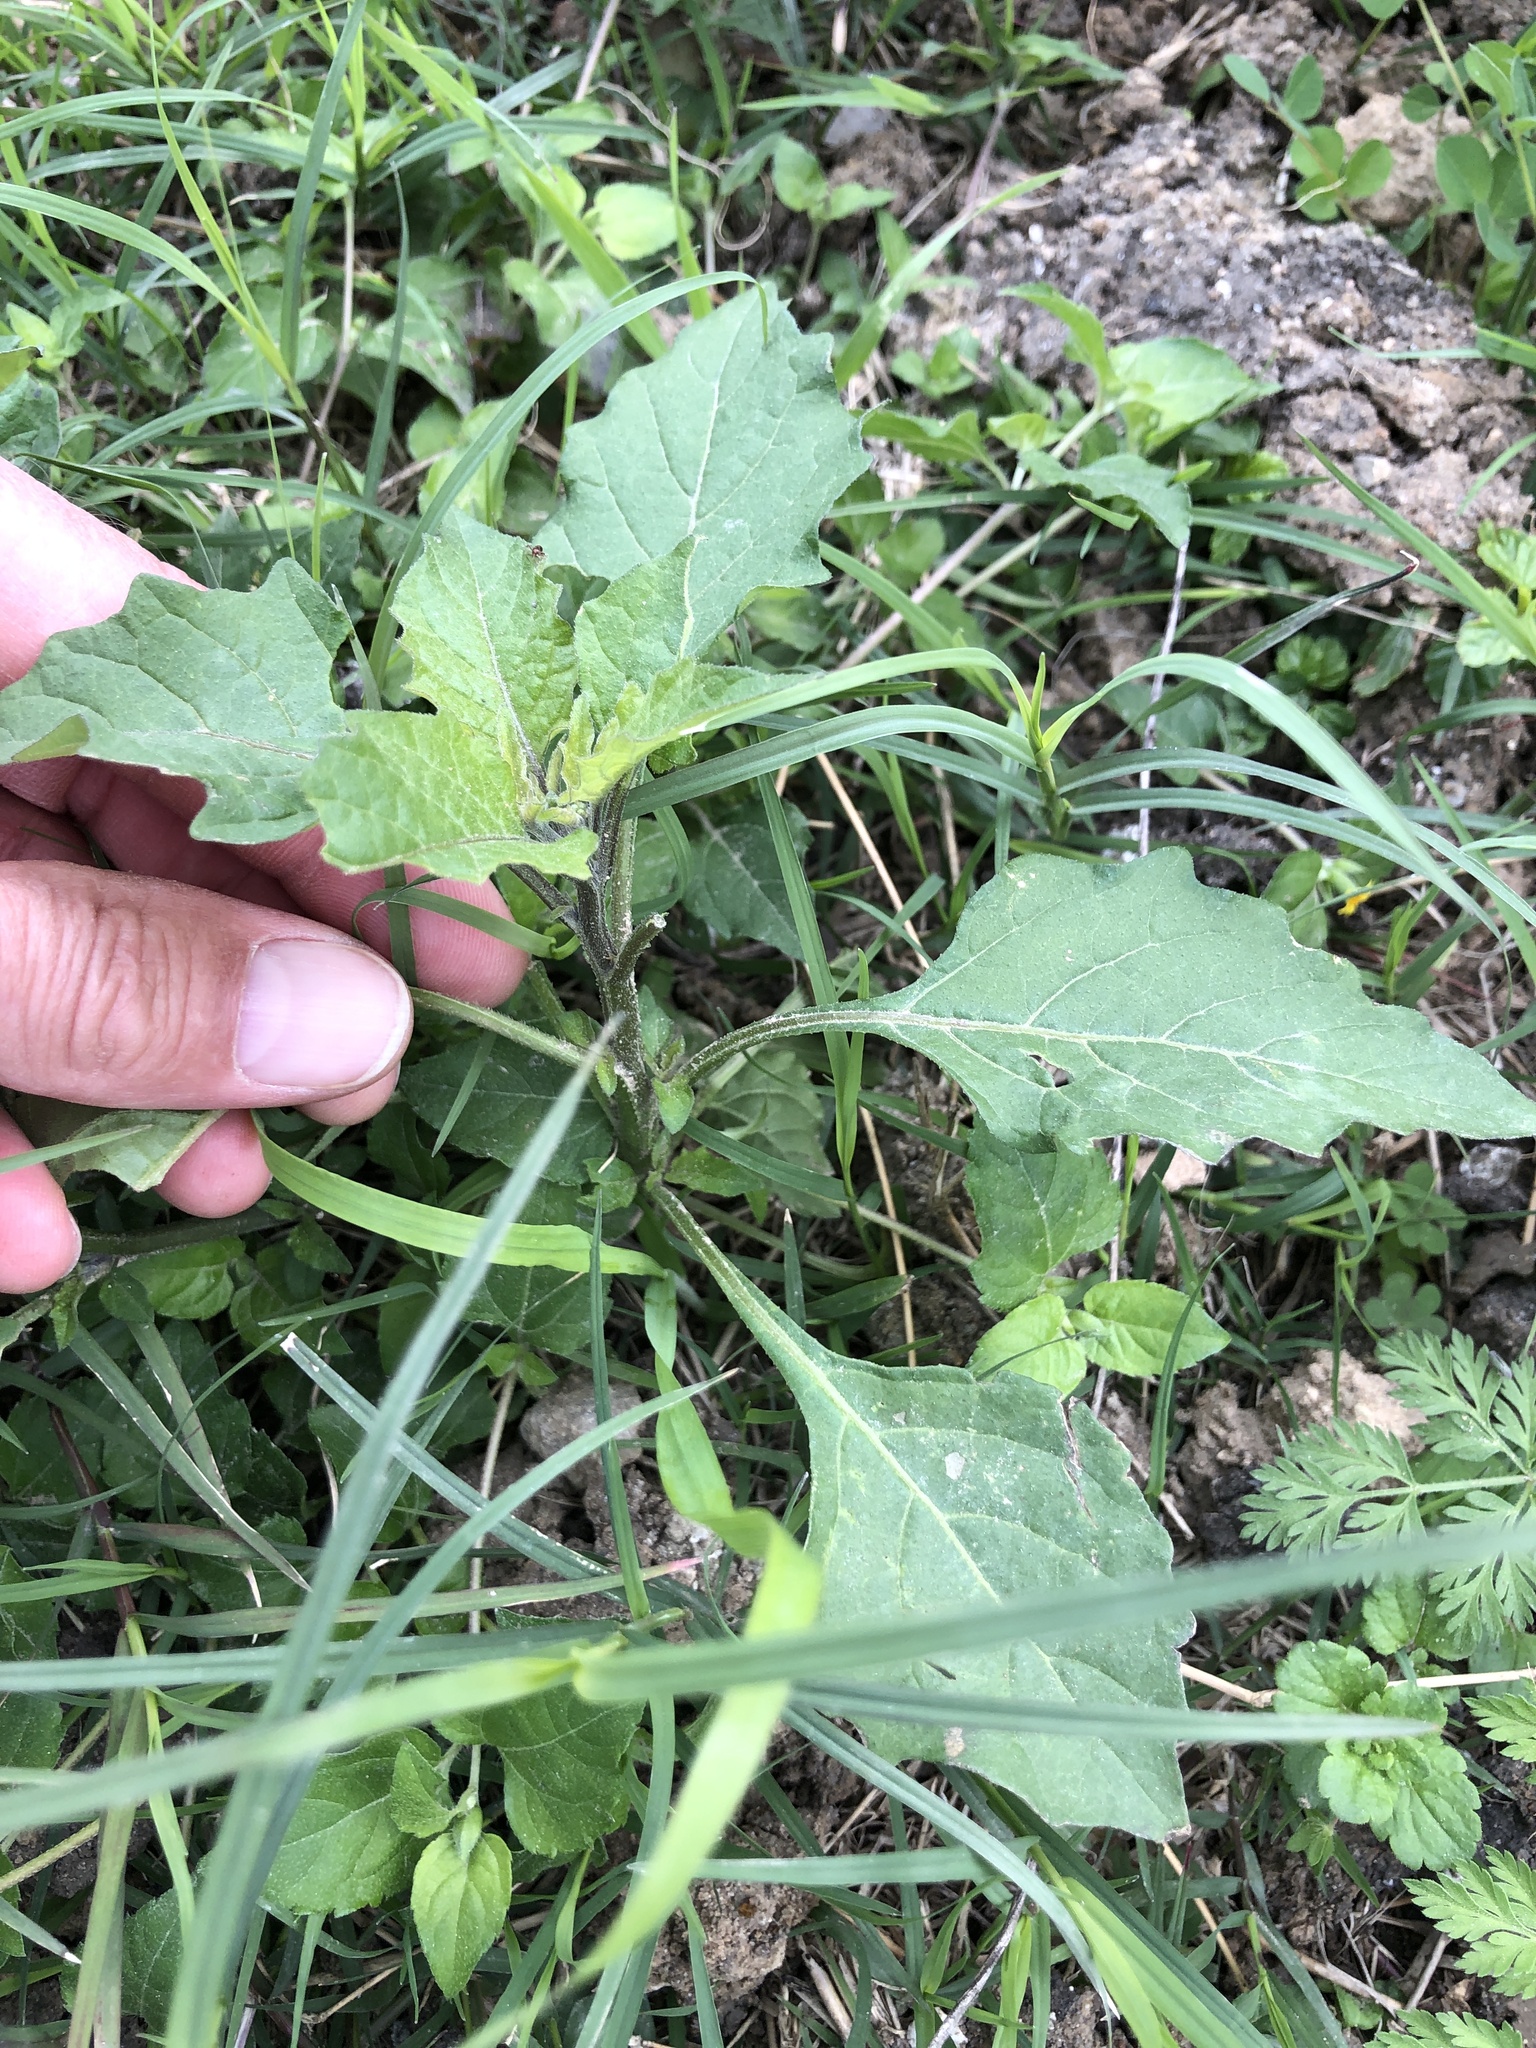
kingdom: Plantae
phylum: Tracheophyta
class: Magnoliopsida
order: Solanales
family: Solanaceae
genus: Solanum
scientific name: Solanum
